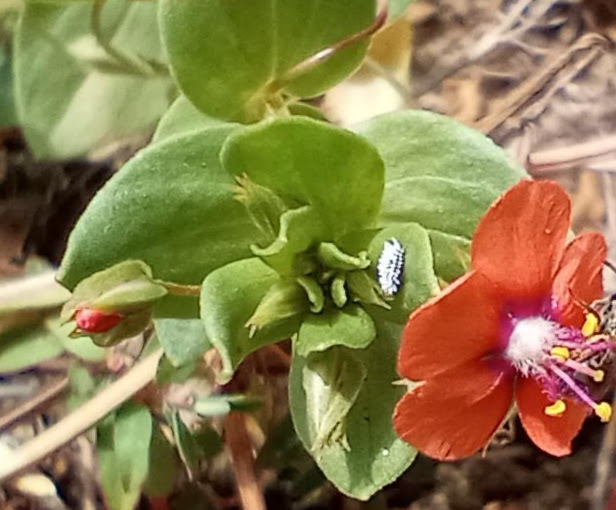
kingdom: Plantae
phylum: Tracheophyta
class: Magnoliopsida
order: Ericales
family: Primulaceae
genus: Lysimachia
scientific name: Lysimachia arvensis
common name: Scarlet pimpernel
